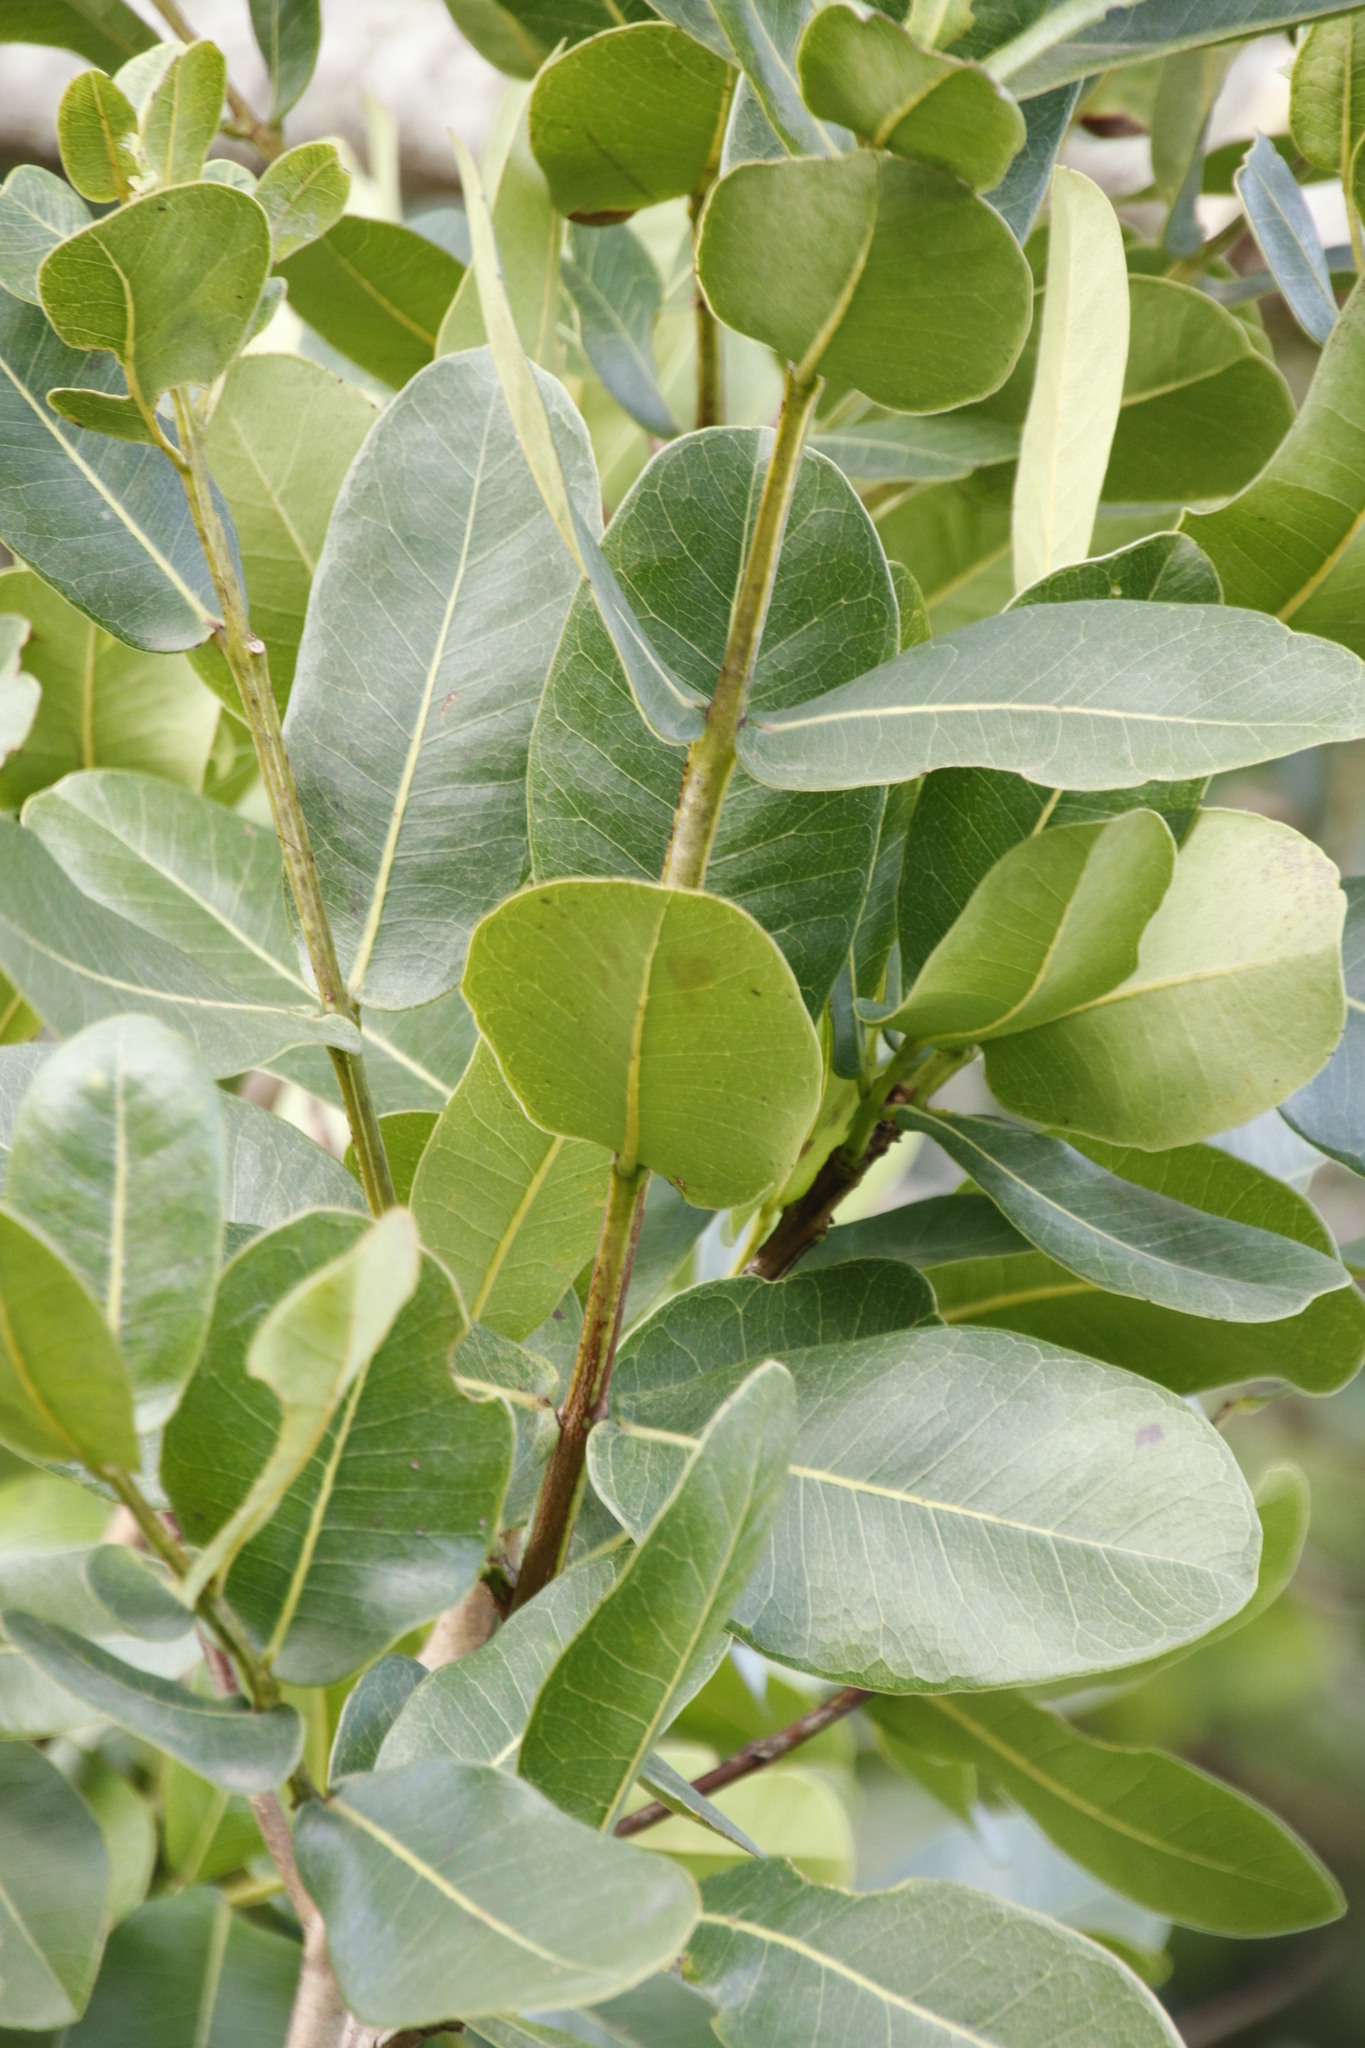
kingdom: Plantae
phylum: Tracheophyta
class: Magnoliopsida
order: Myrtales
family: Myrtaceae
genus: Syzygium
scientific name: Syzygium cordatum
